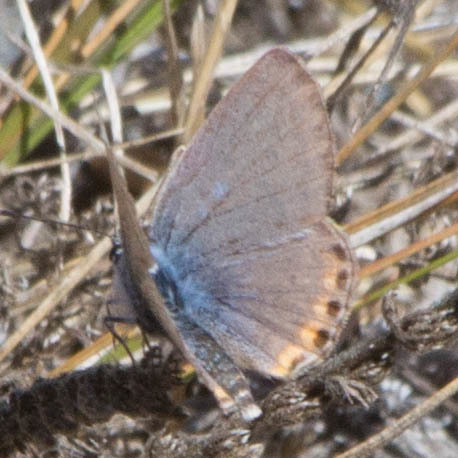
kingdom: Animalia
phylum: Arthropoda
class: Insecta
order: Lepidoptera
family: Lycaenidae
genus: Icaricia
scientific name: Icaricia acmon
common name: Acmon blue
